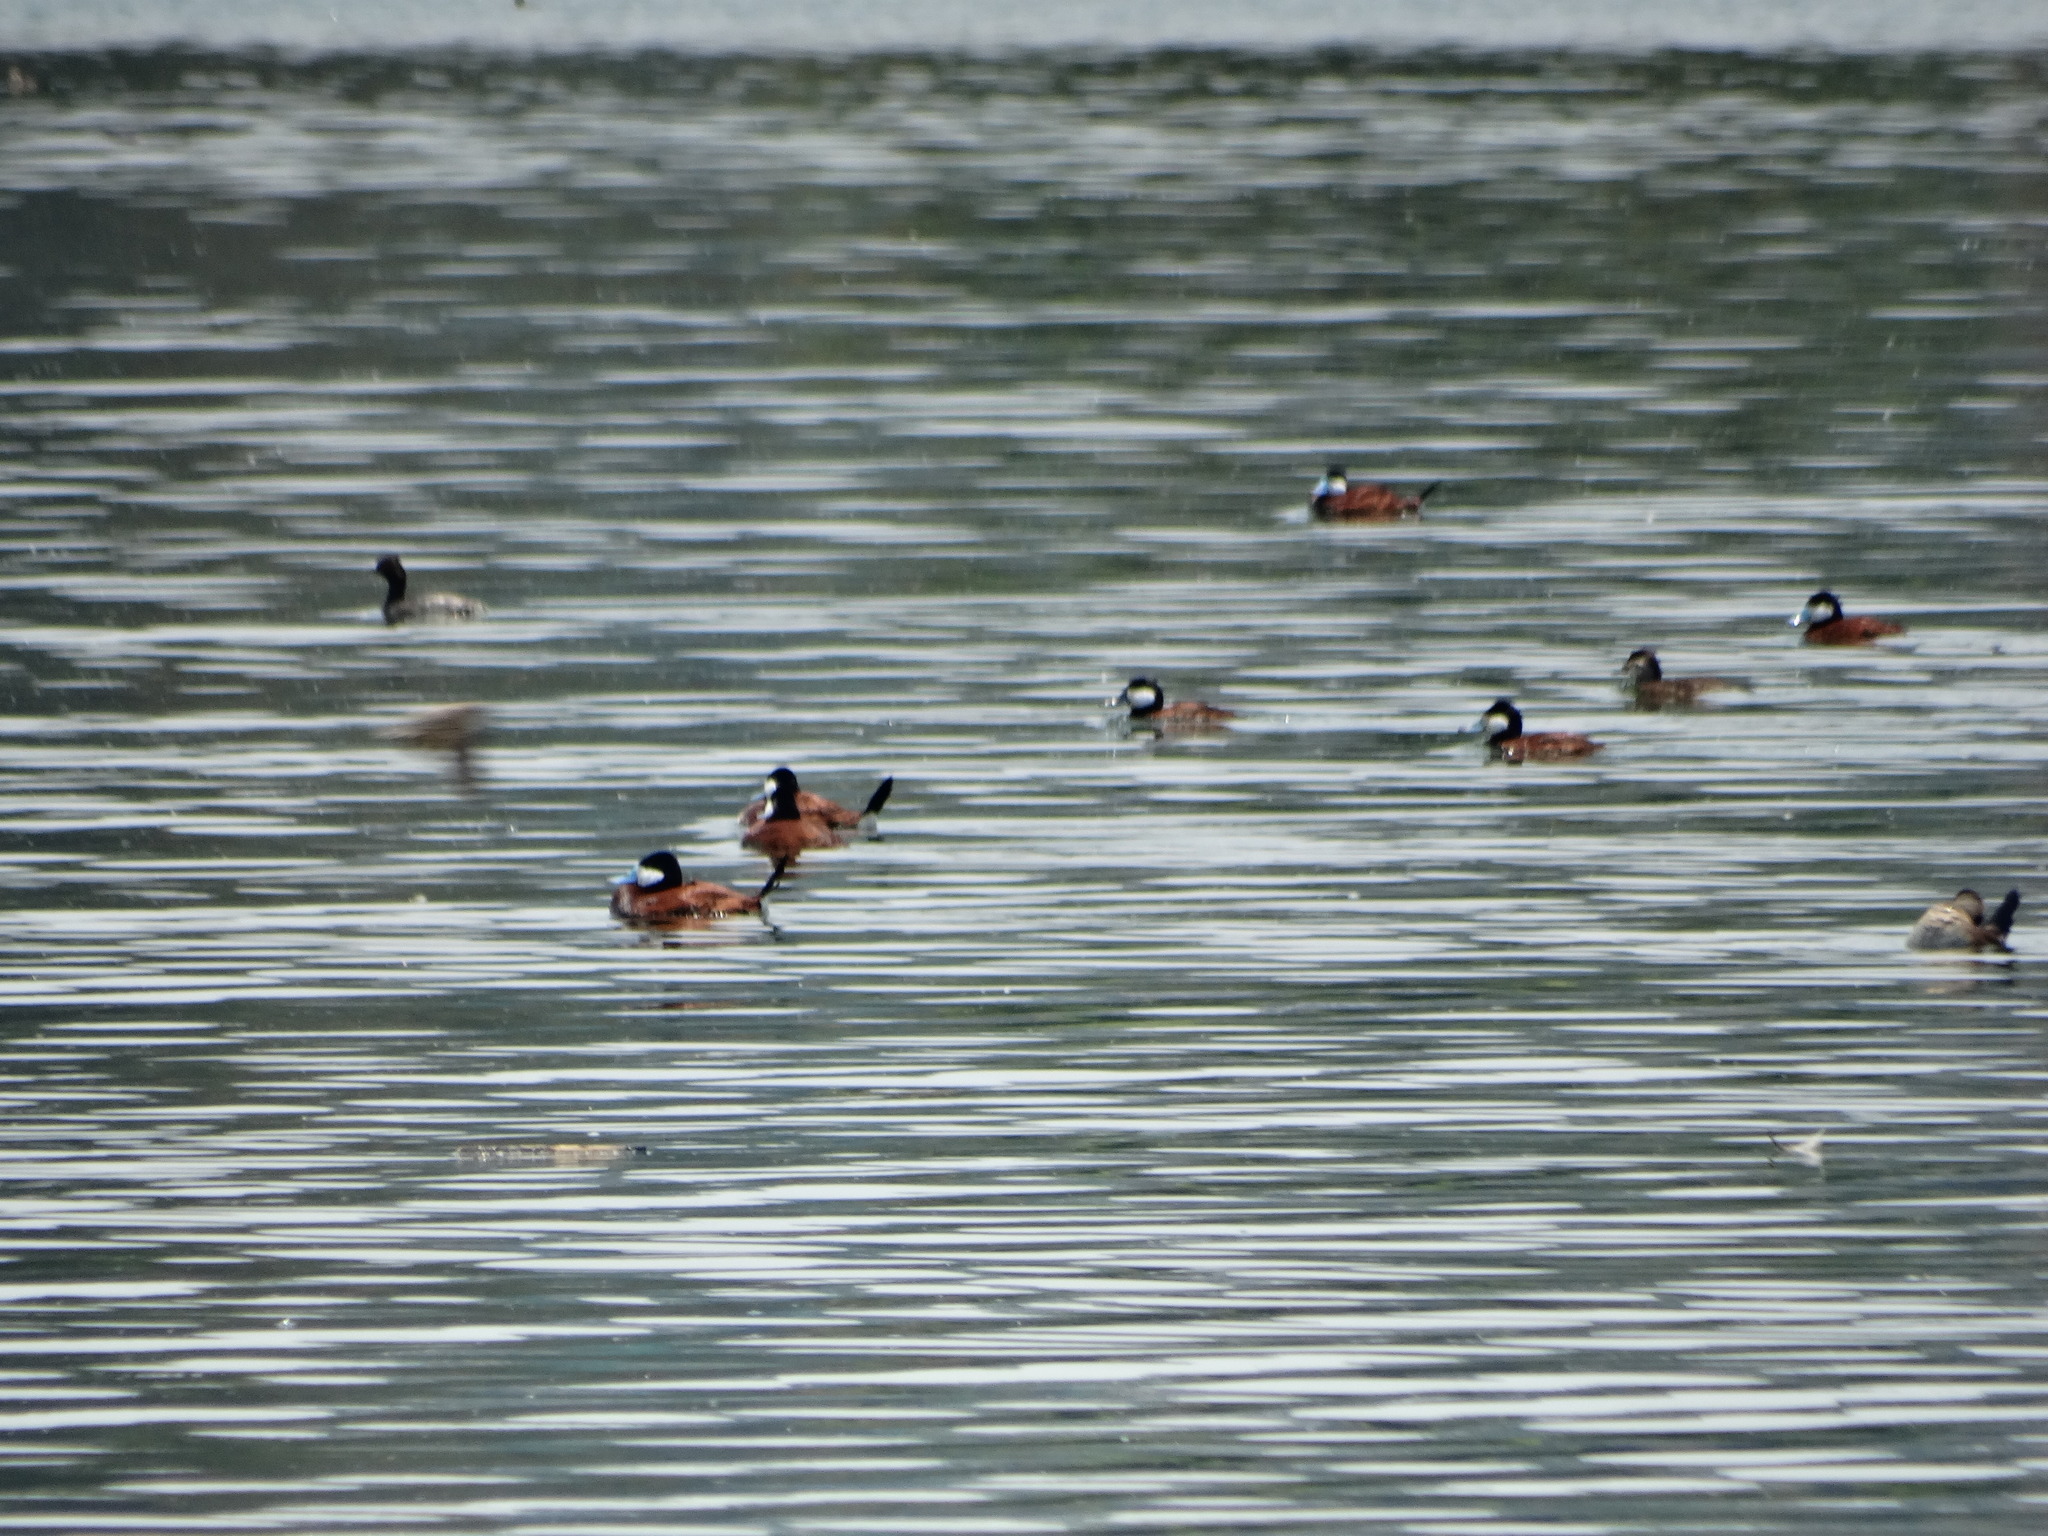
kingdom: Animalia
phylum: Chordata
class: Aves
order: Anseriformes
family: Anatidae
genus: Oxyura
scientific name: Oxyura jamaicensis
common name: Ruddy duck
